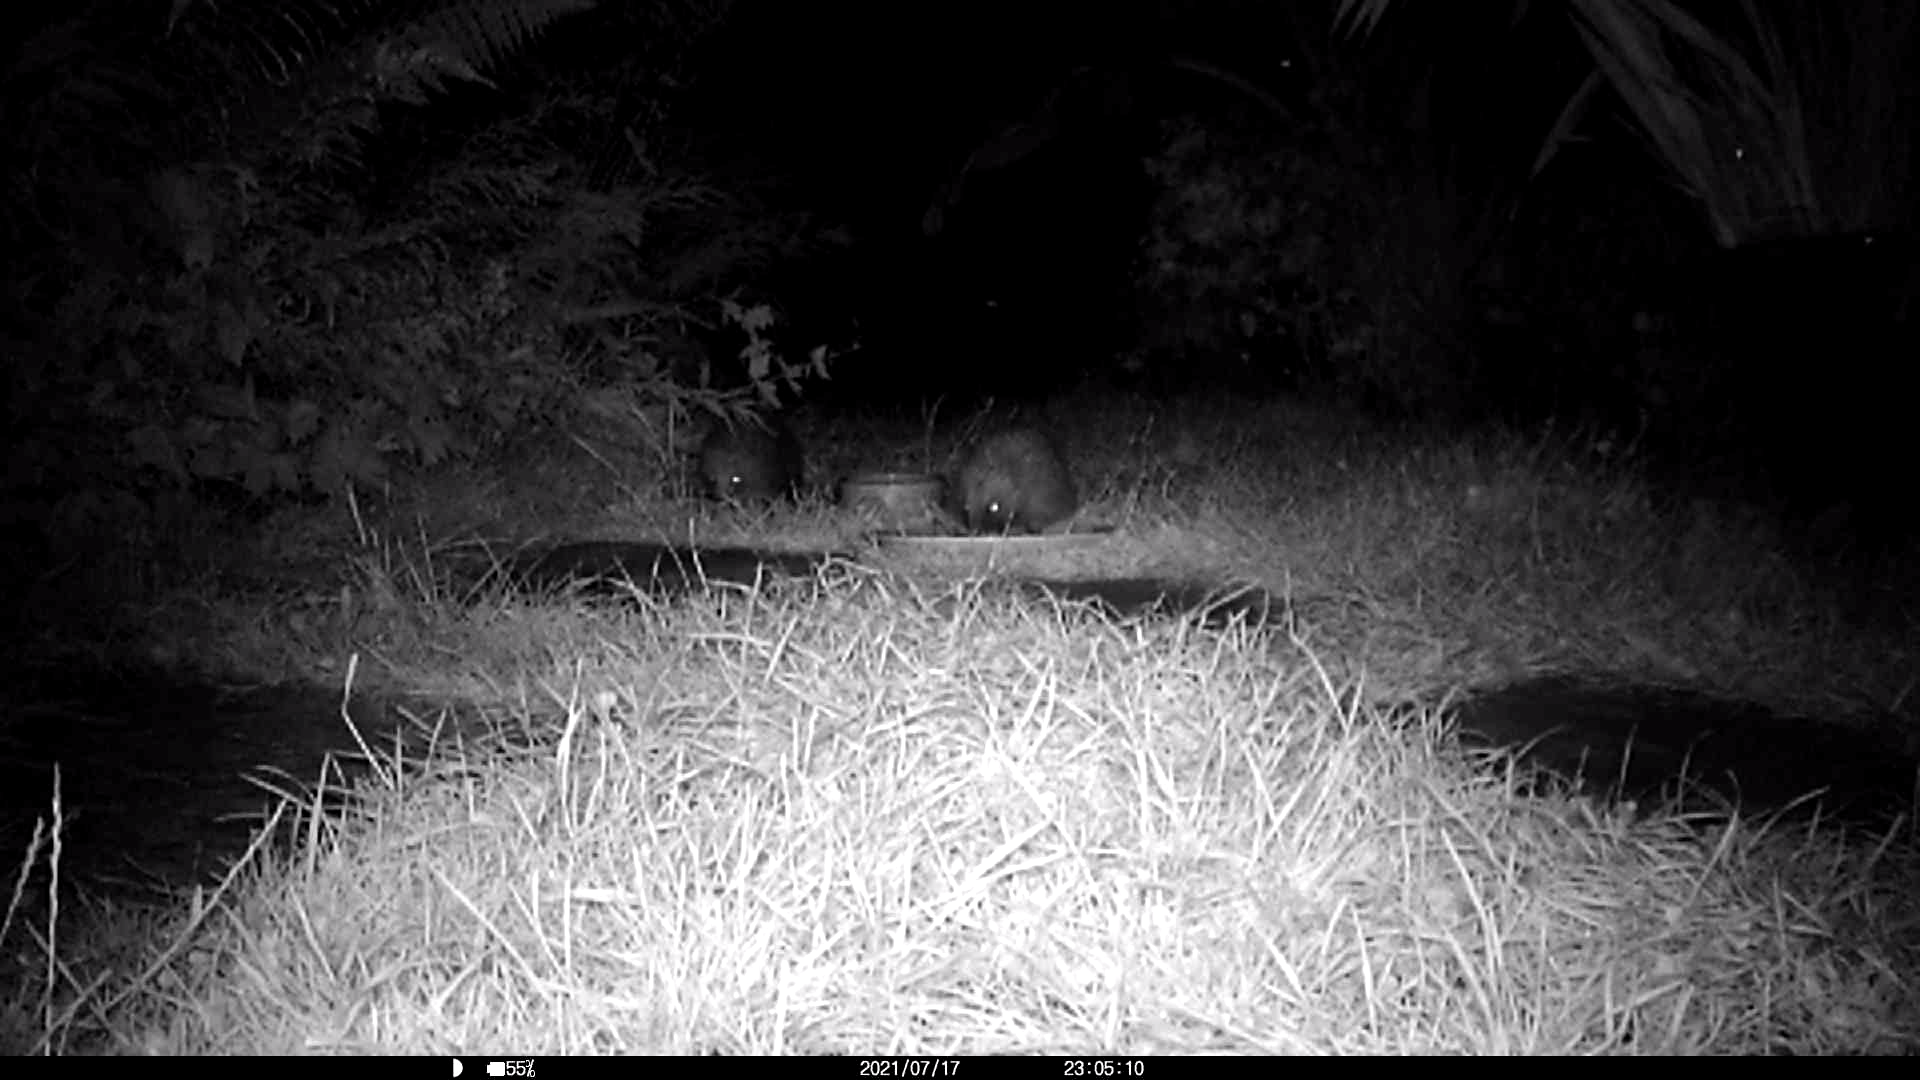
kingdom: Animalia
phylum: Chordata
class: Mammalia
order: Erinaceomorpha
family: Erinaceidae
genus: Erinaceus
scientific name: Erinaceus europaeus
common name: West european hedgehog
